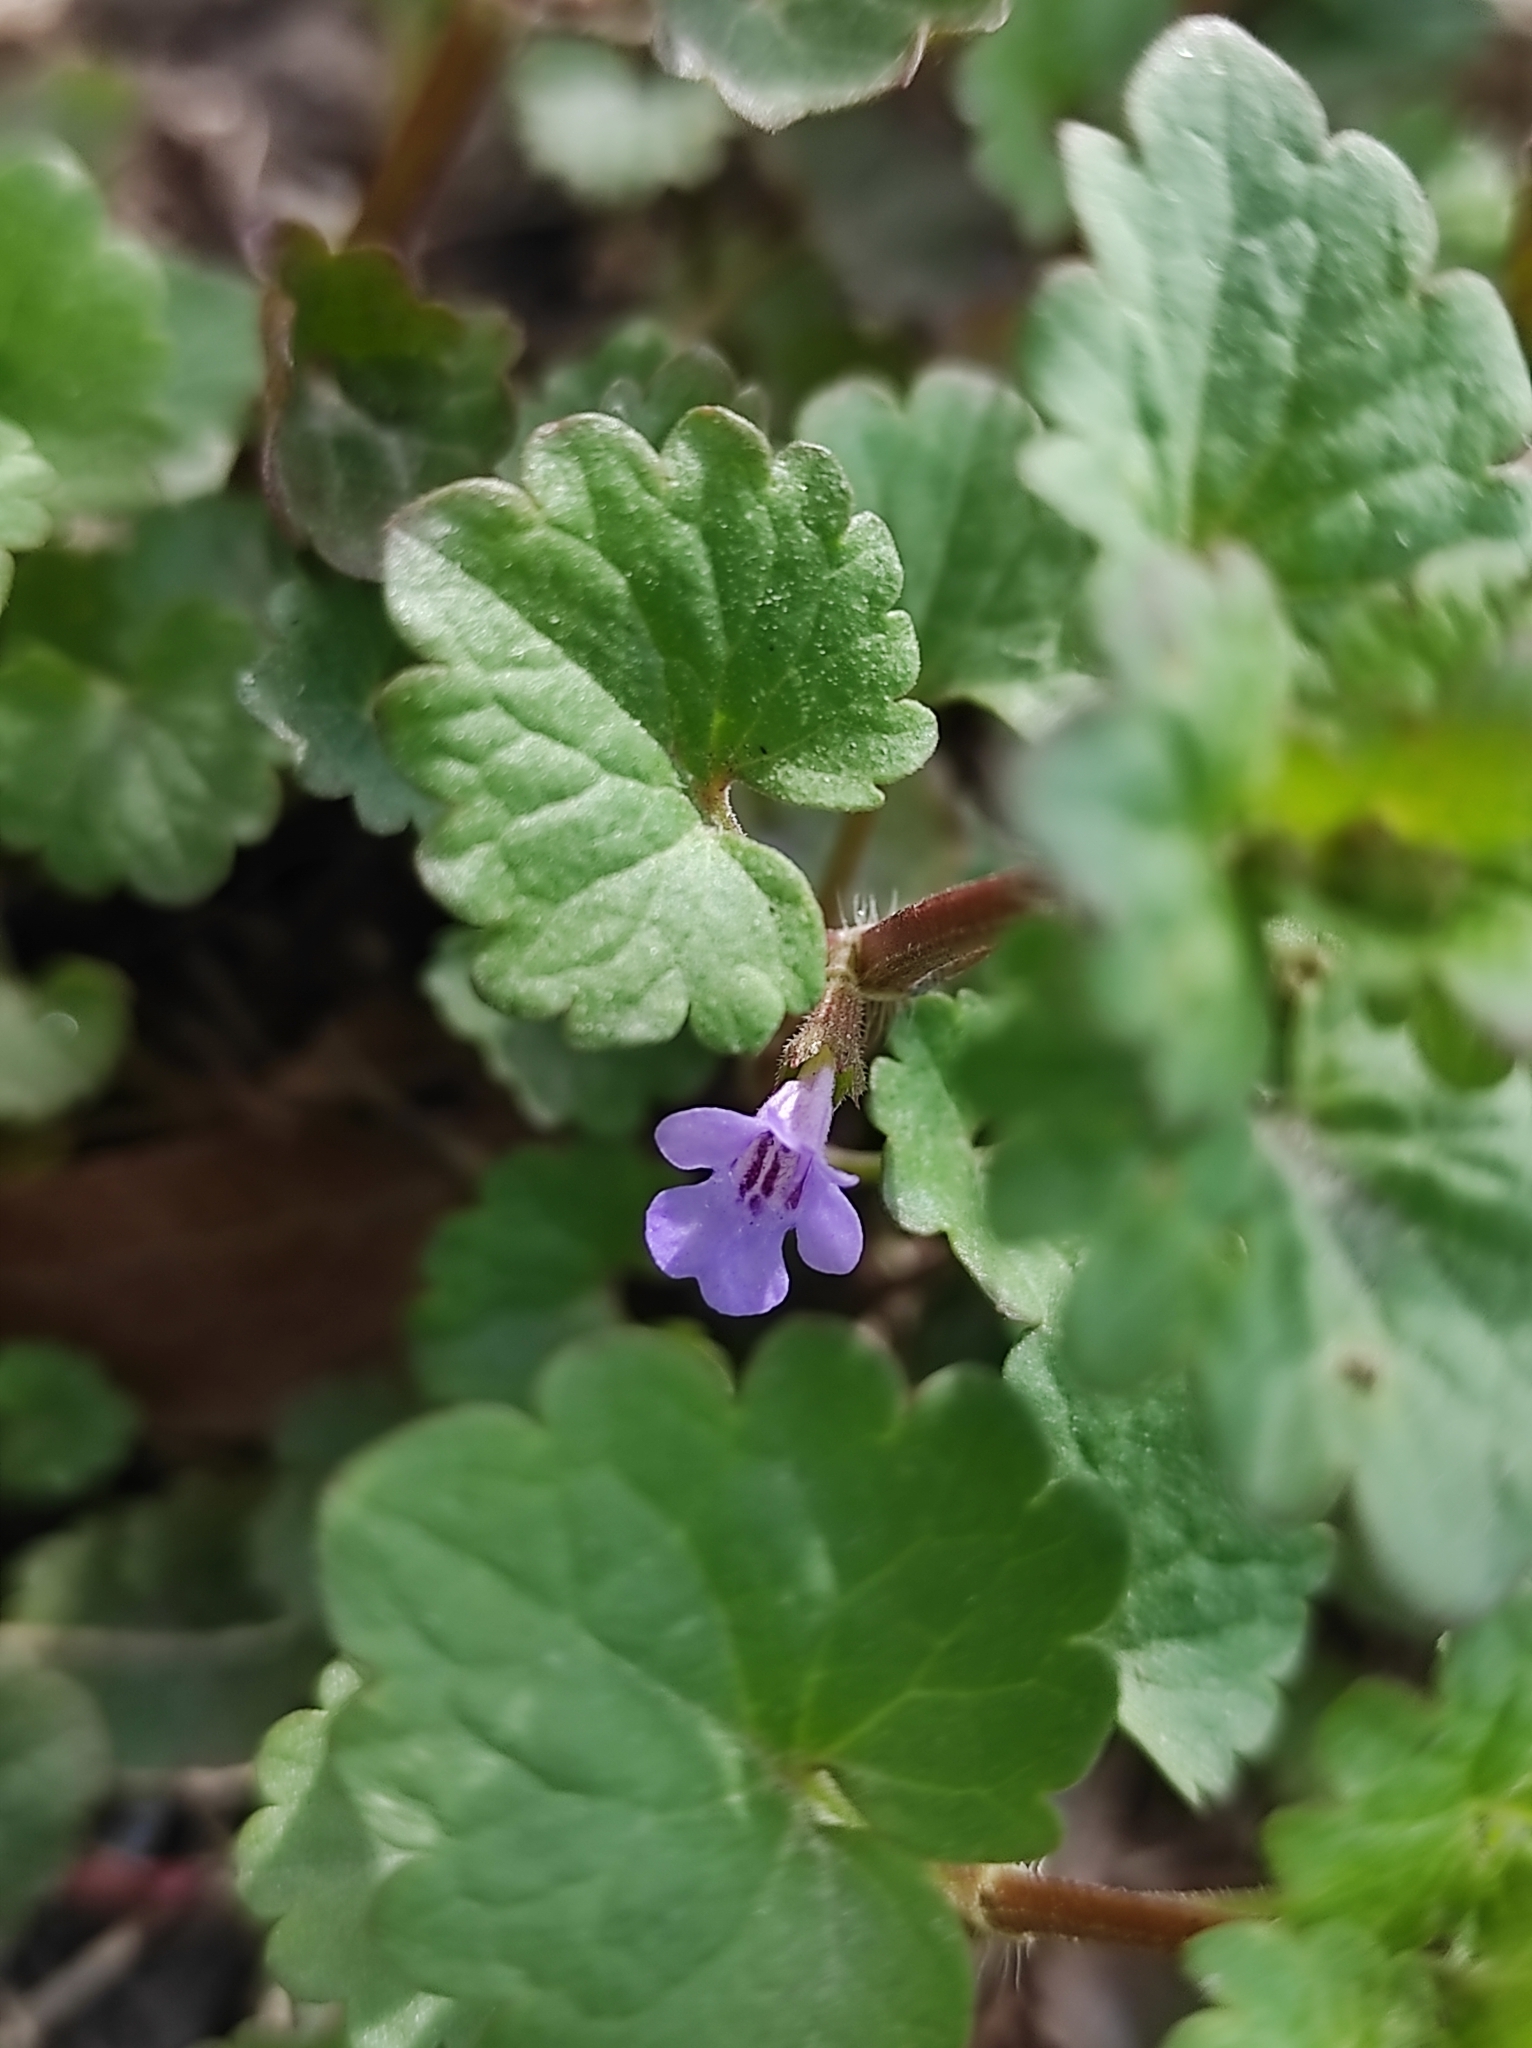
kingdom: Plantae
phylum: Tracheophyta
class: Magnoliopsida
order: Lamiales
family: Lamiaceae
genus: Glechoma
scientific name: Glechoma hederacea
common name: Ground ivy
